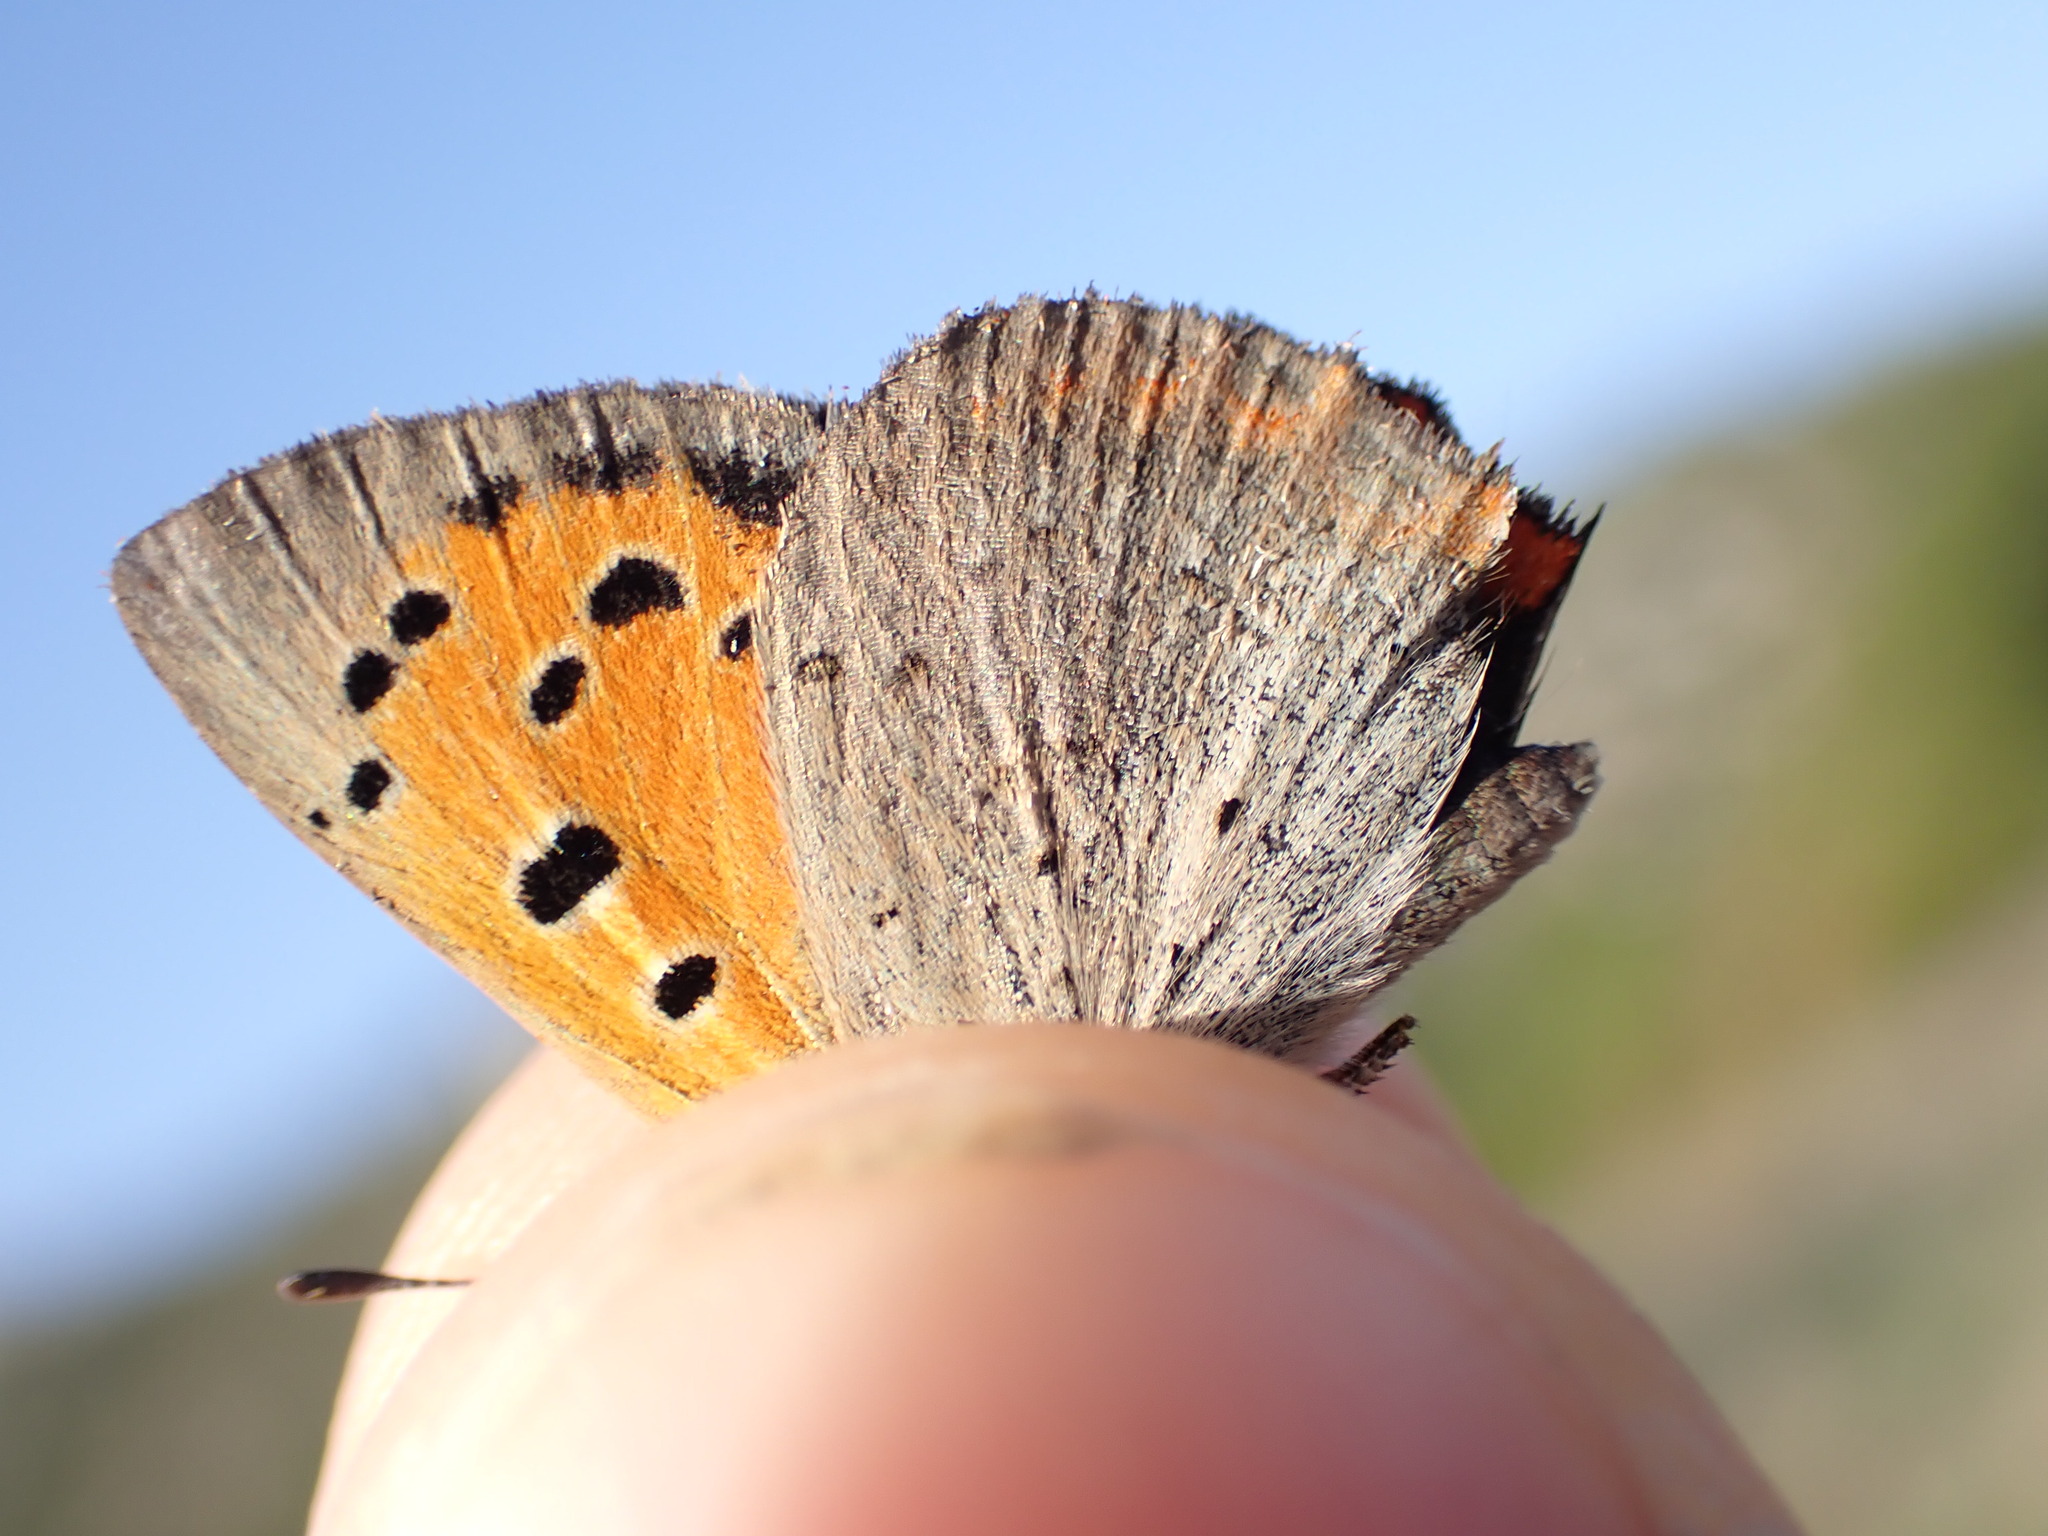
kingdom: Animalia
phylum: Arthropoda
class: Insecta
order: Lepidoptera
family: Lycaenidae
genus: Lycaena
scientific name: Lycaena phlaeas
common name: Small copper
